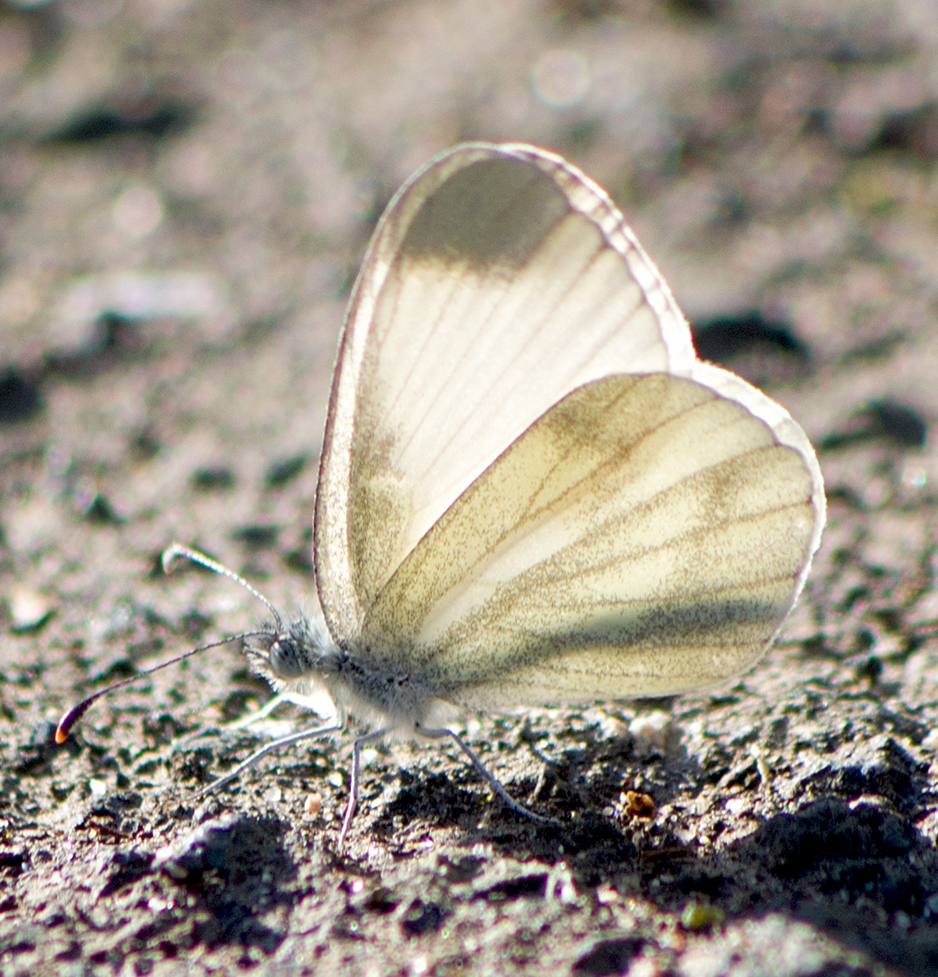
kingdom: Animalia
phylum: Arthropoda
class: Insecta
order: Lepidoptera
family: Pieridae
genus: Leptidea
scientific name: Leptidea
